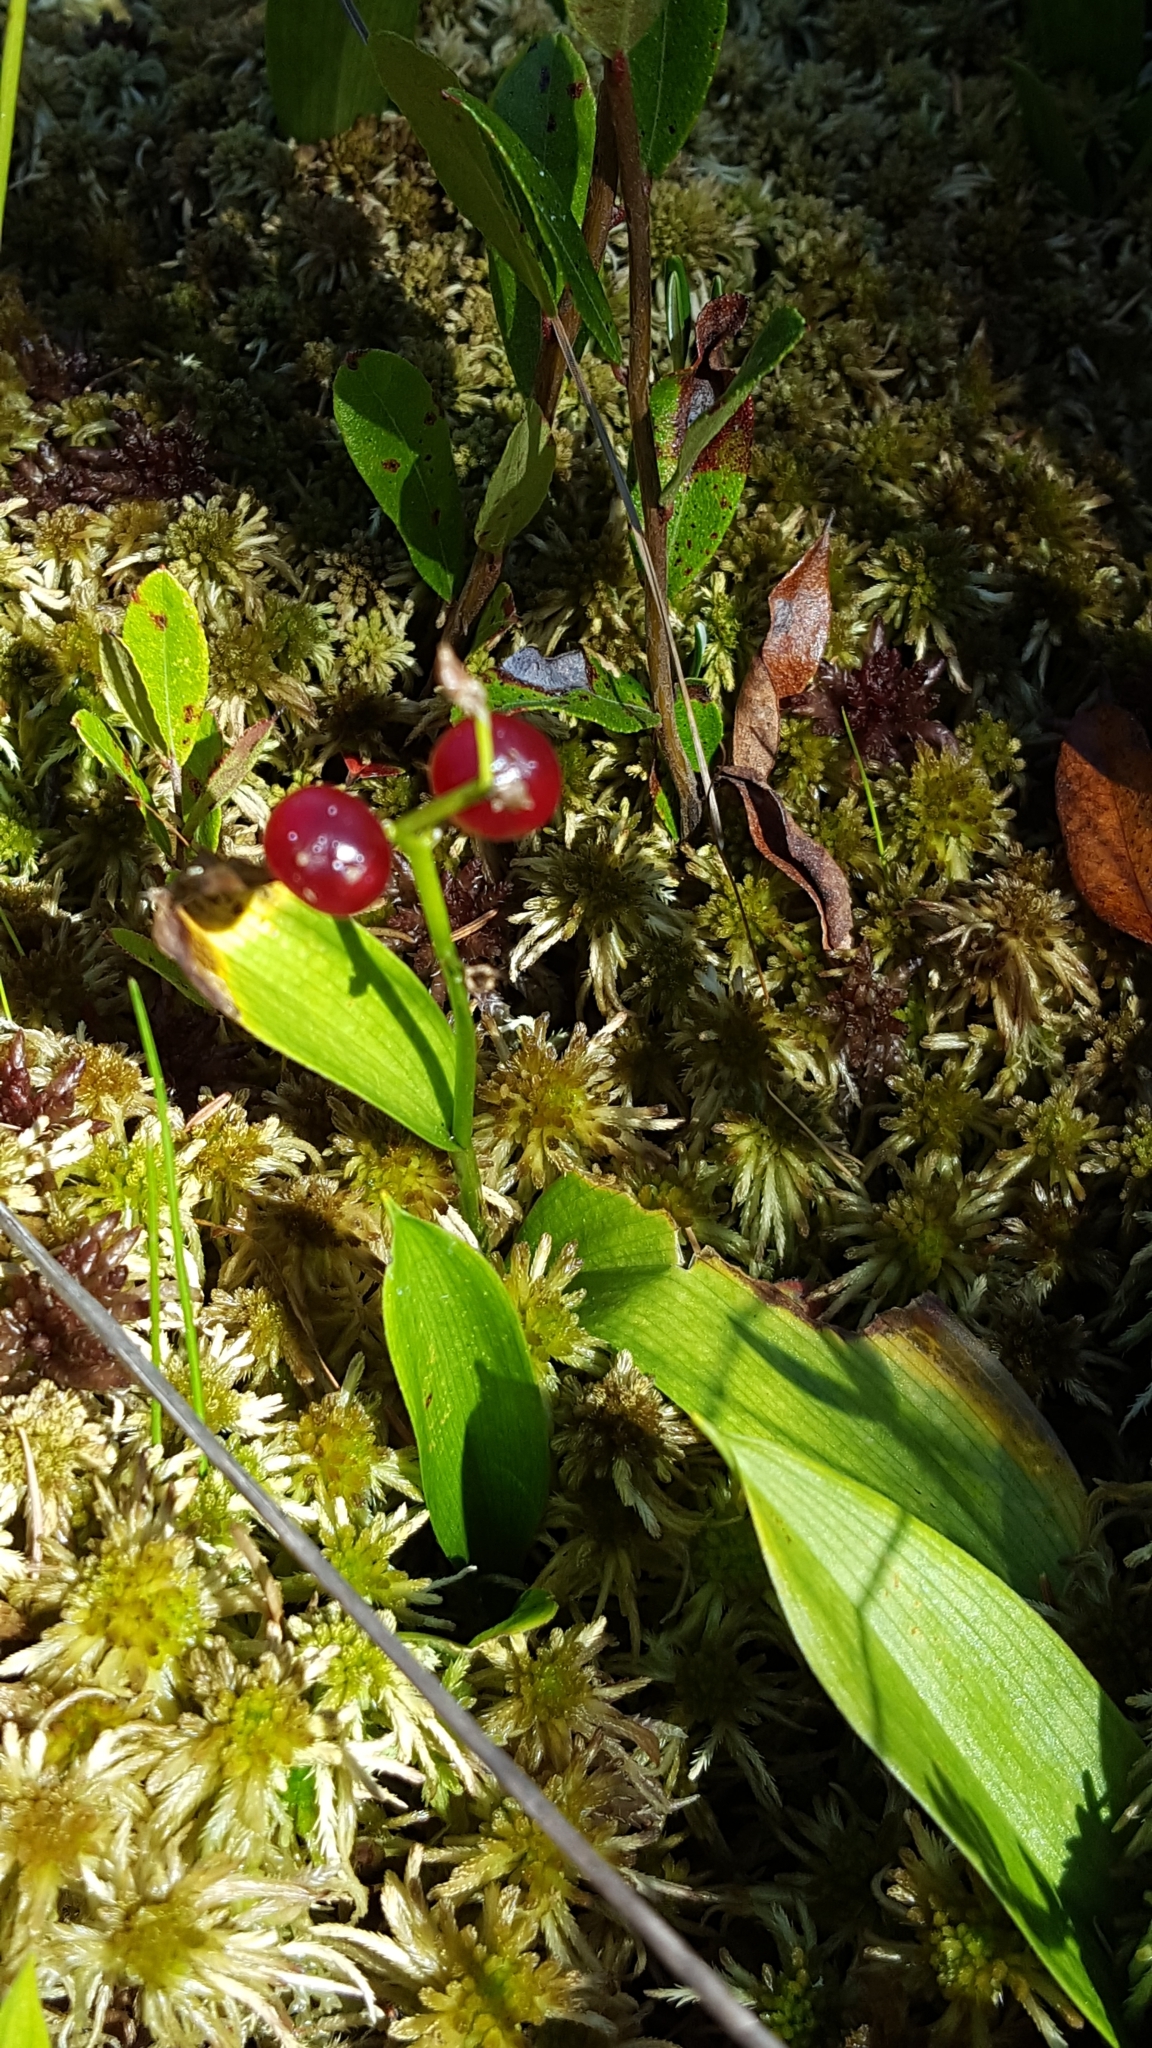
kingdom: Plantae
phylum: Tracheophyta
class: Liliopsida
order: Asparagales
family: Asparagaceae
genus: Maianthemum
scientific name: Maianthemum trifolium
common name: Swamp false solomon's seal
